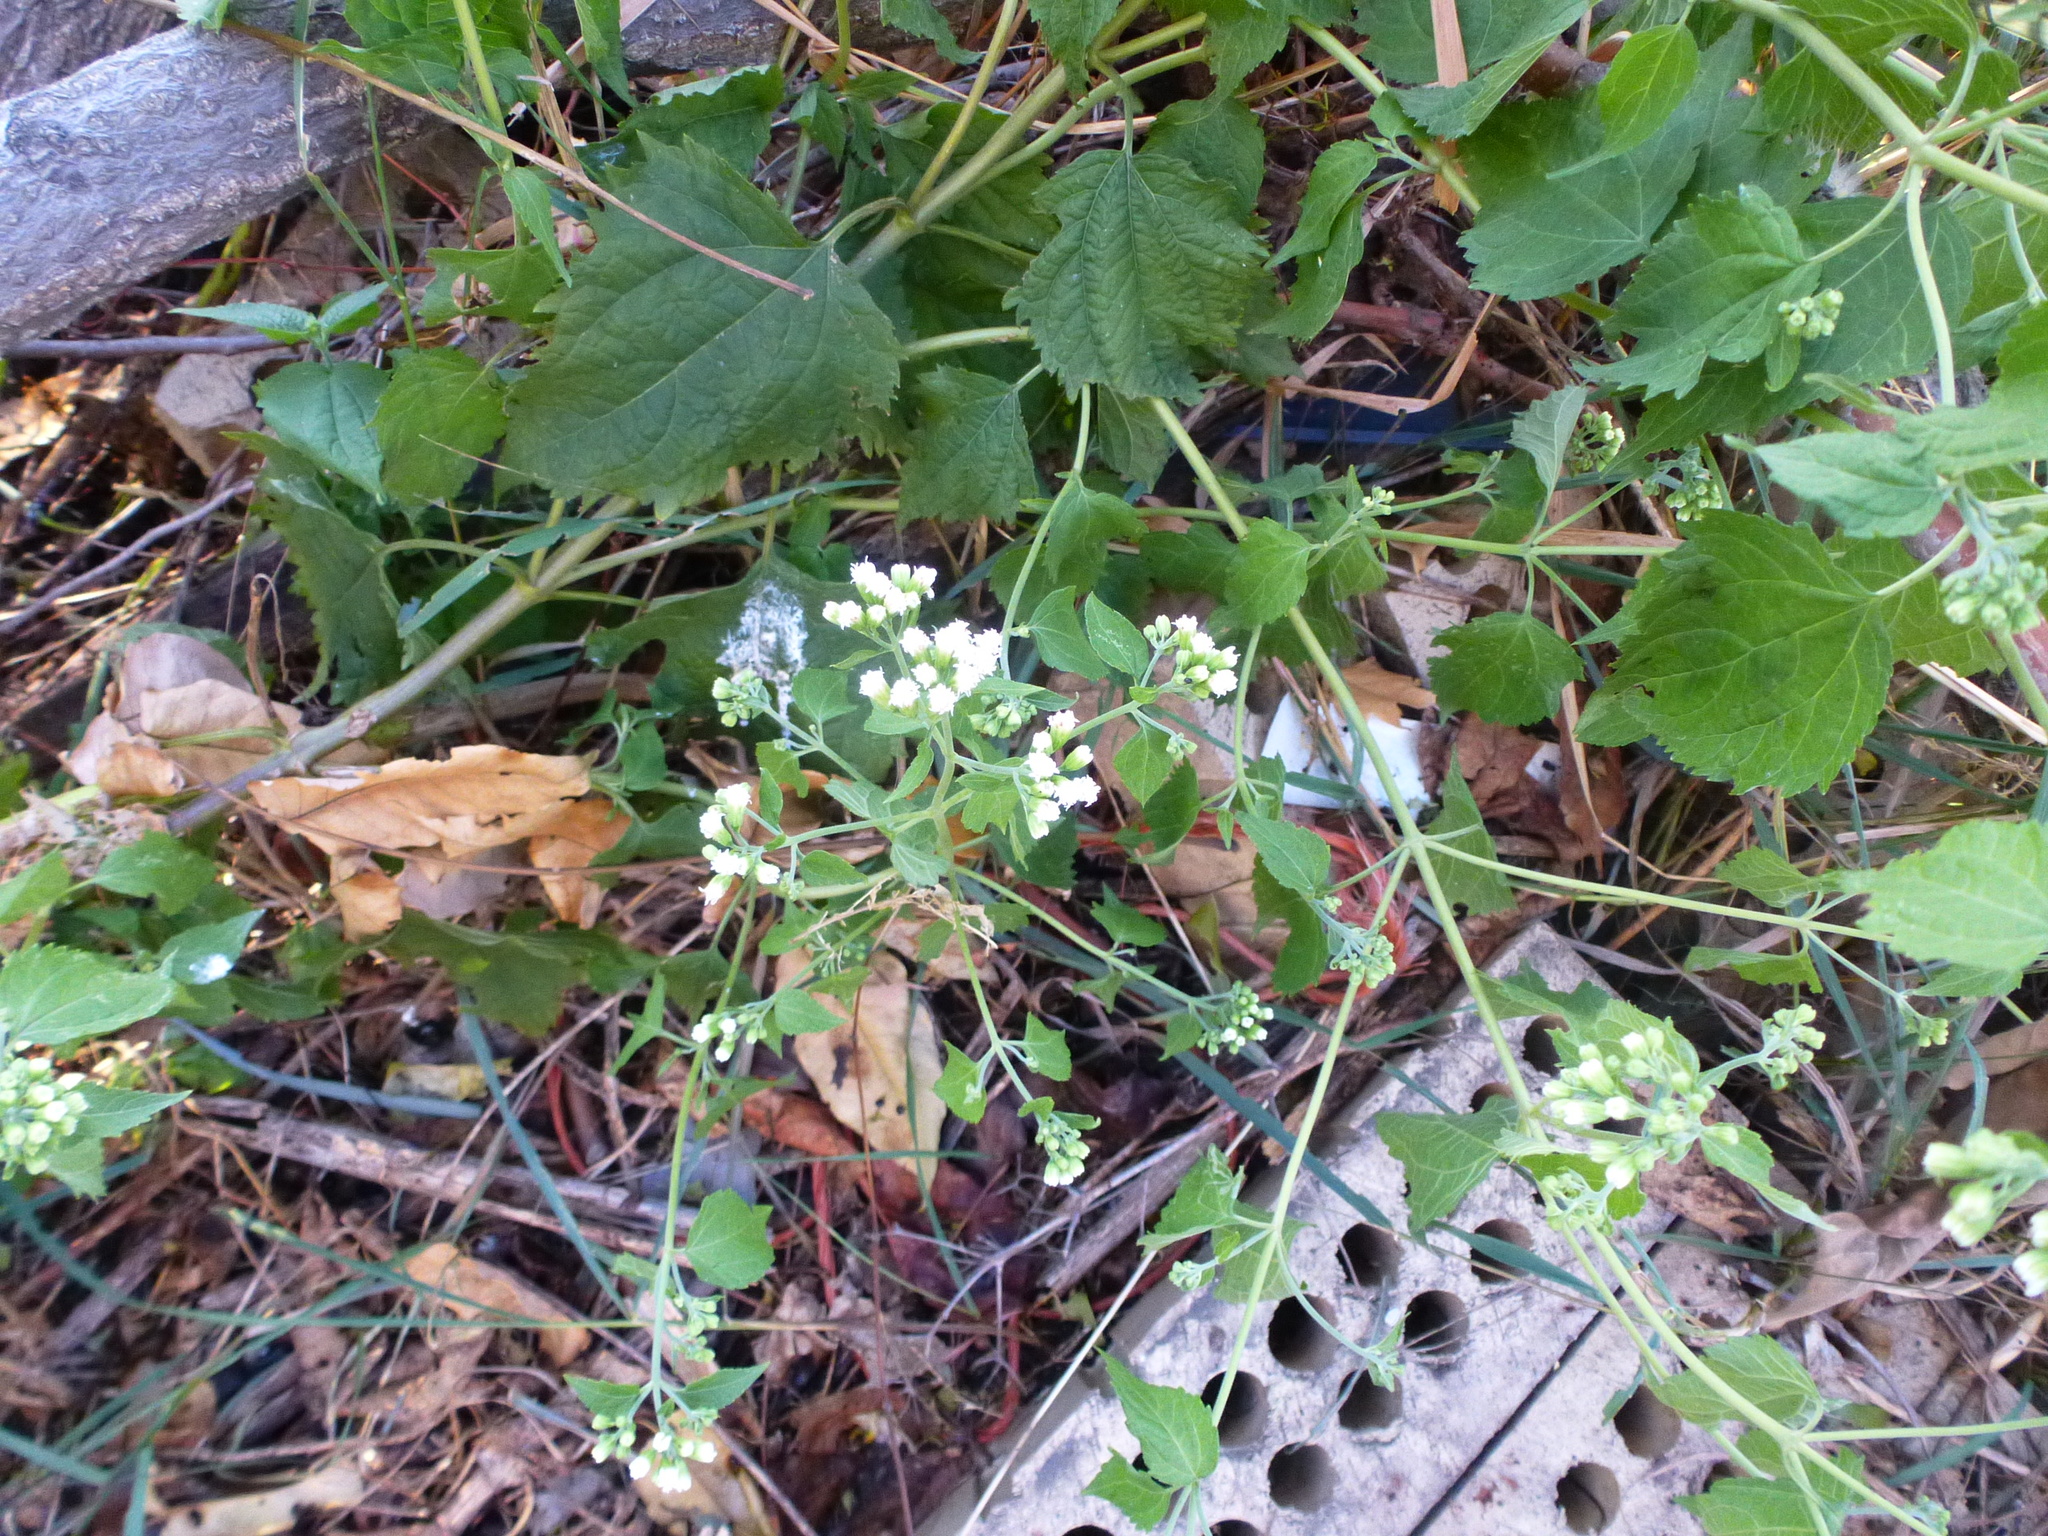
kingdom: Plantae
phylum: Tracheophyta
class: Magnoliopsida
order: Asterales
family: Asteraceae
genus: Ageratina
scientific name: Ageratina altissima
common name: White snakeroot
